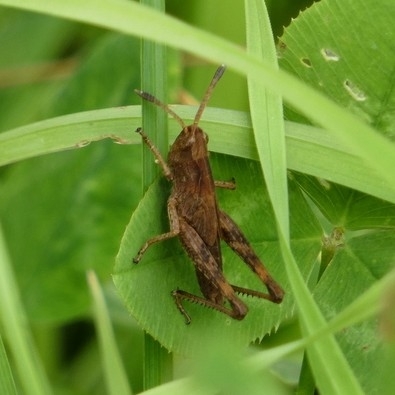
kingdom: Animalia
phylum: Arthropoda
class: Insecta
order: Orthoptera
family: Acrididae
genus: Gomphocerippus
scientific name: Gomphocerippus rufus
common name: Rufous grasshopper
